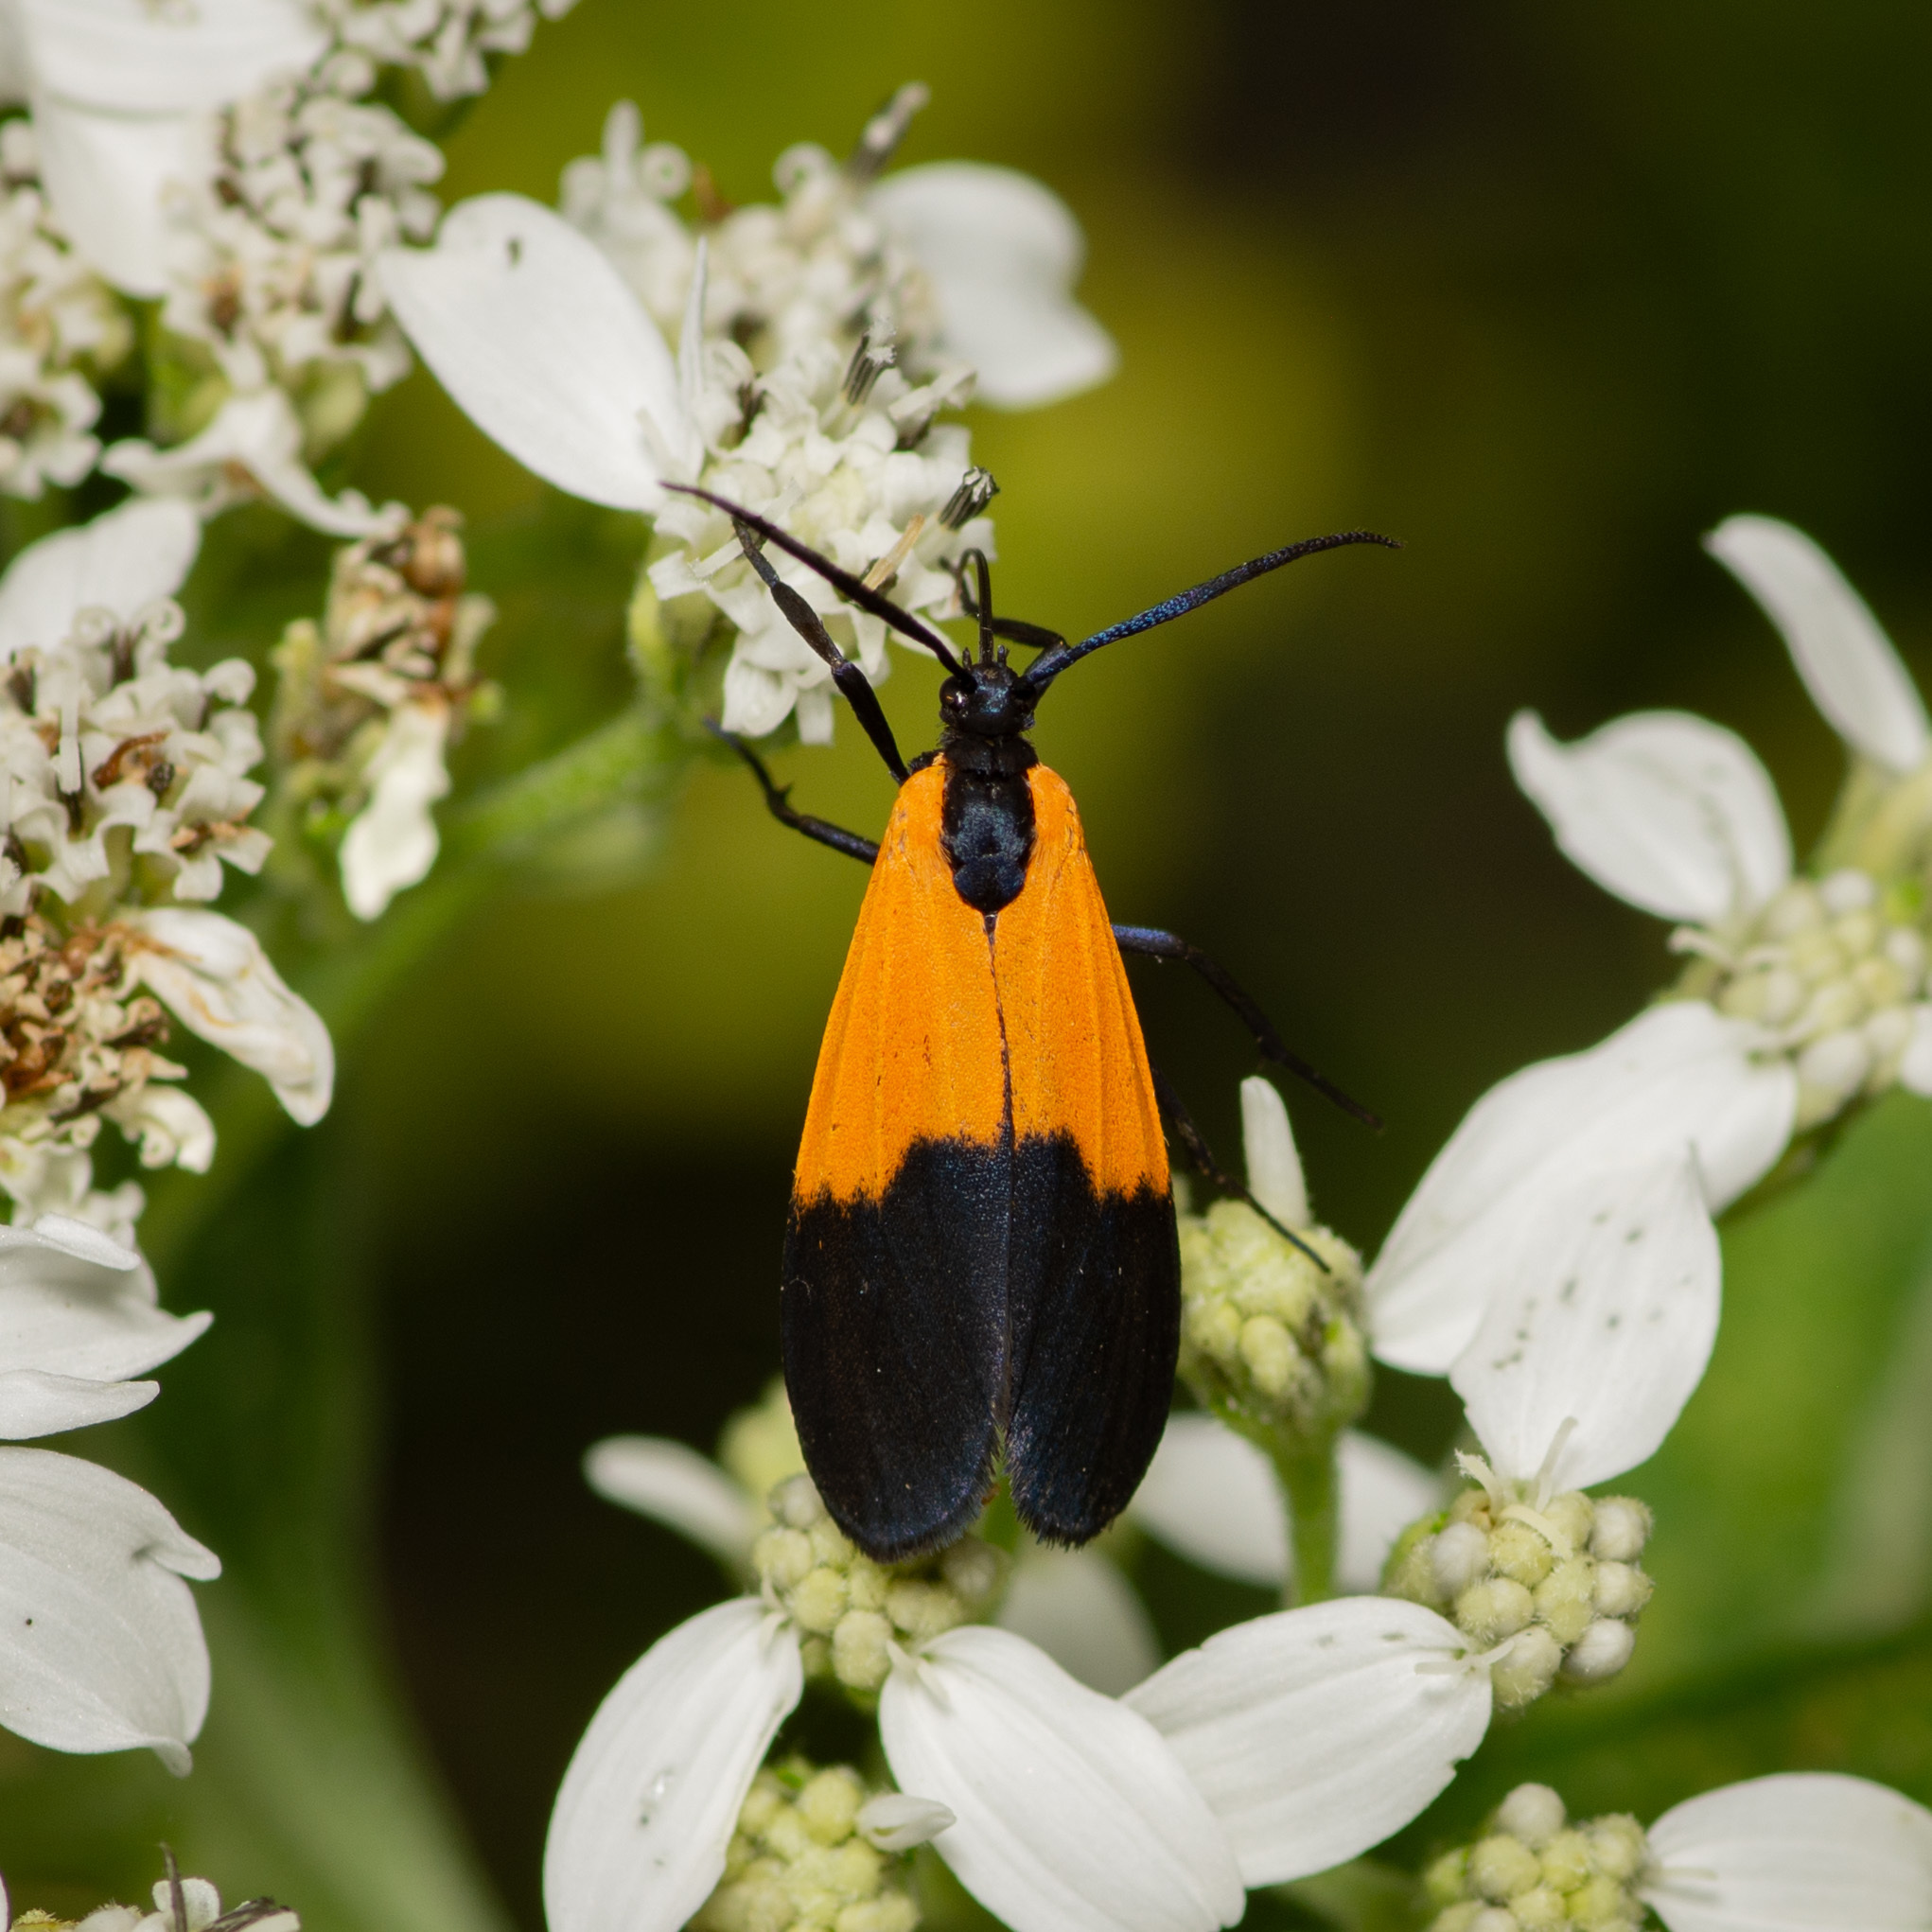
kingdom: Animalia
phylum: Arthropoda
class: Insecta
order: Lepidoptera
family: Erebidae
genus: Lycomorpha
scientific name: Lycomorpha pholus
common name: Black-and-yellow lichen moth
